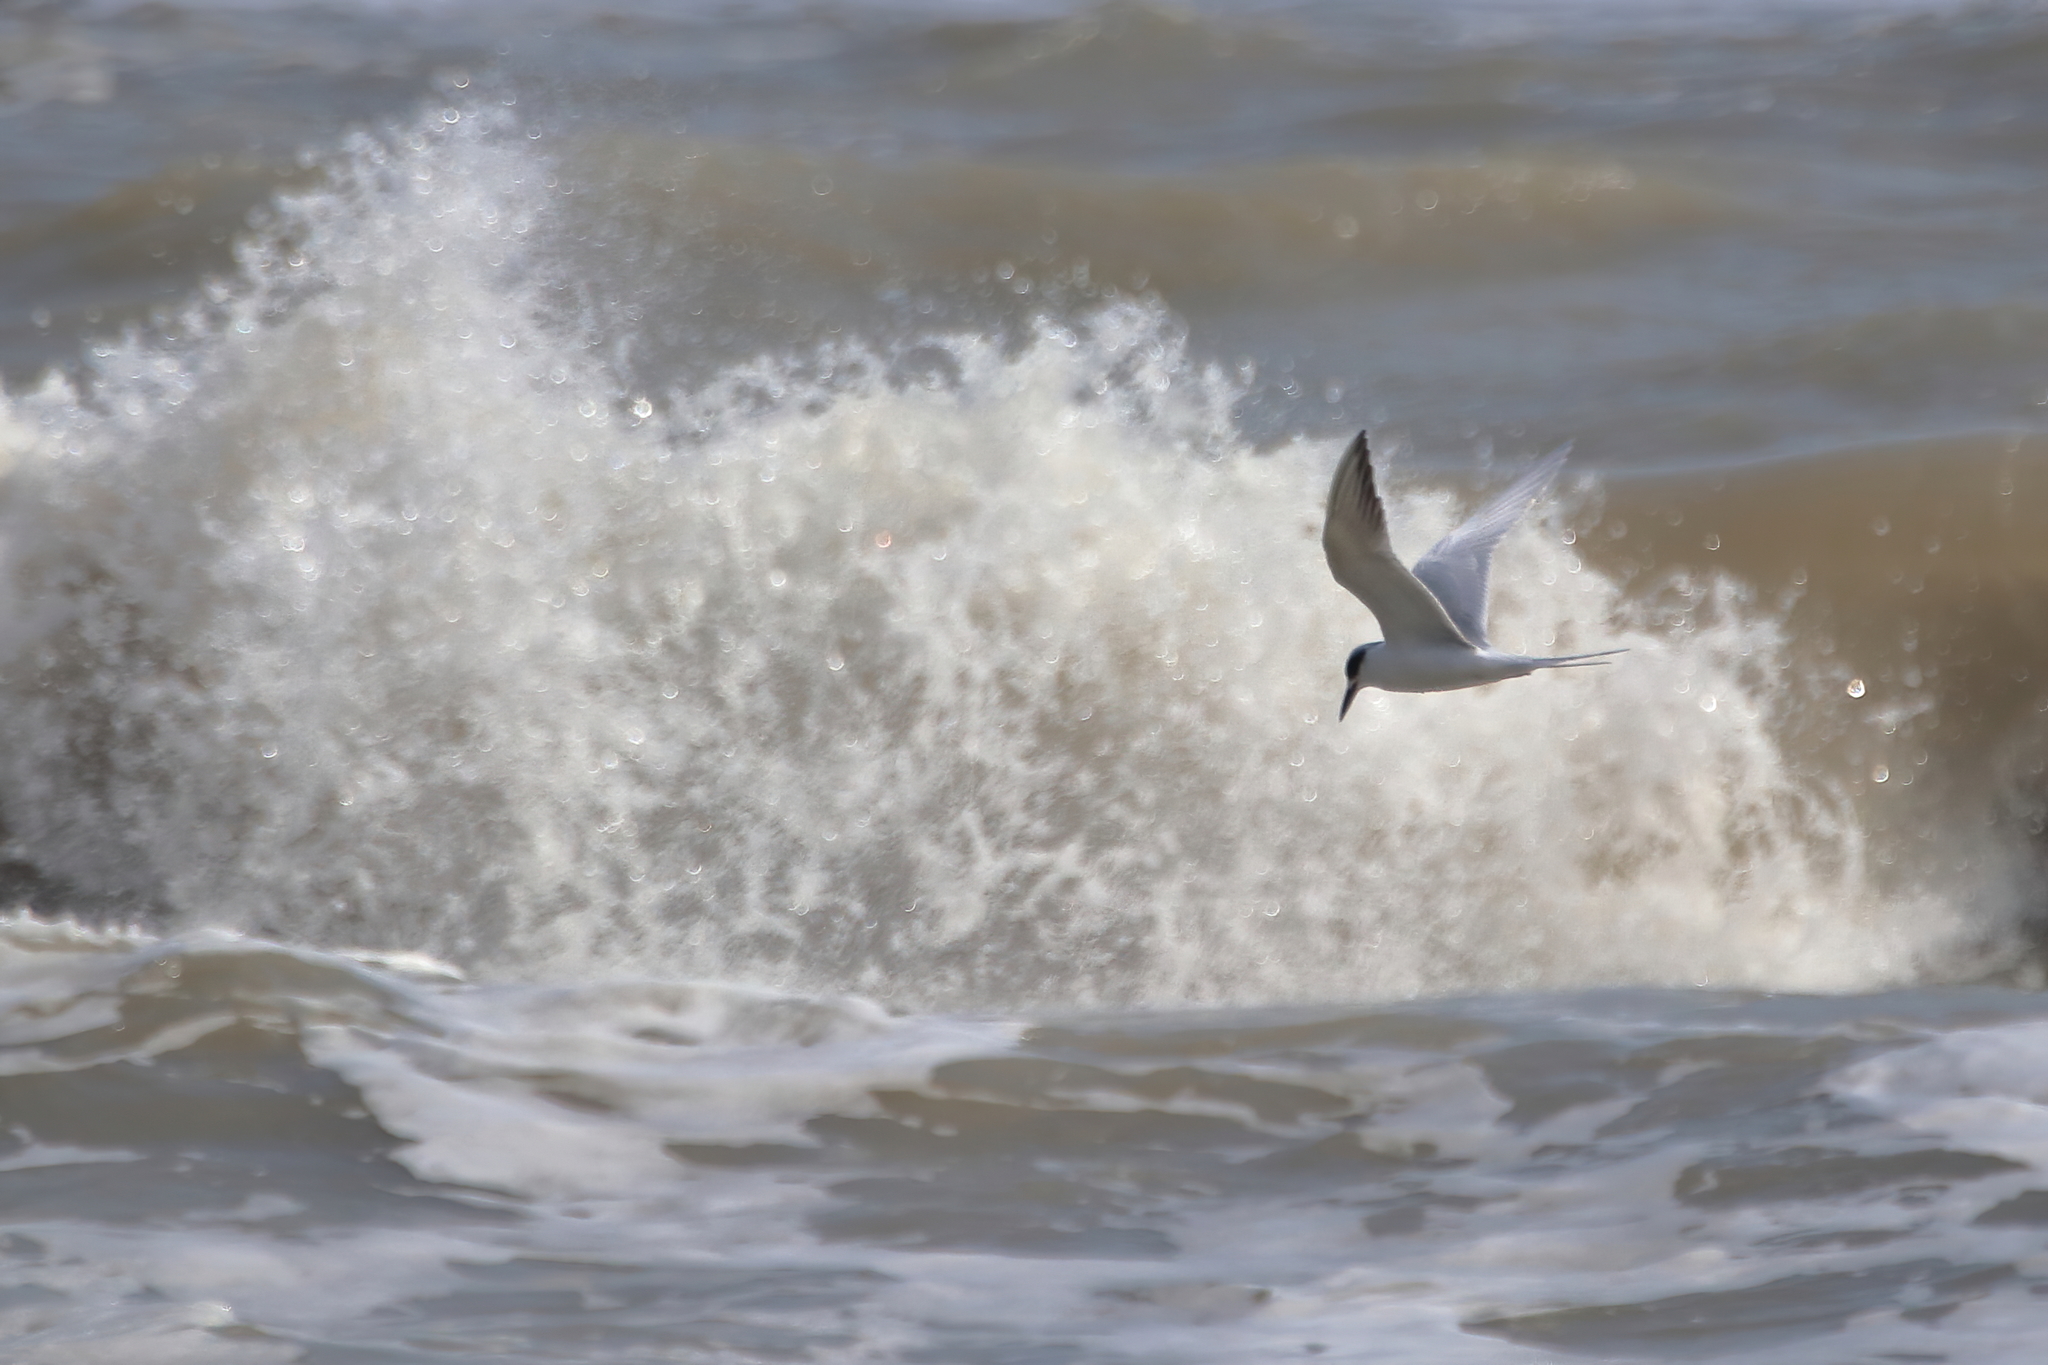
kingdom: Animalia
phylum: Chordata
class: Aves
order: Charadriiformes
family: Laridae
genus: Sterna
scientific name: Sterna forsteri
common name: Forster's tern
